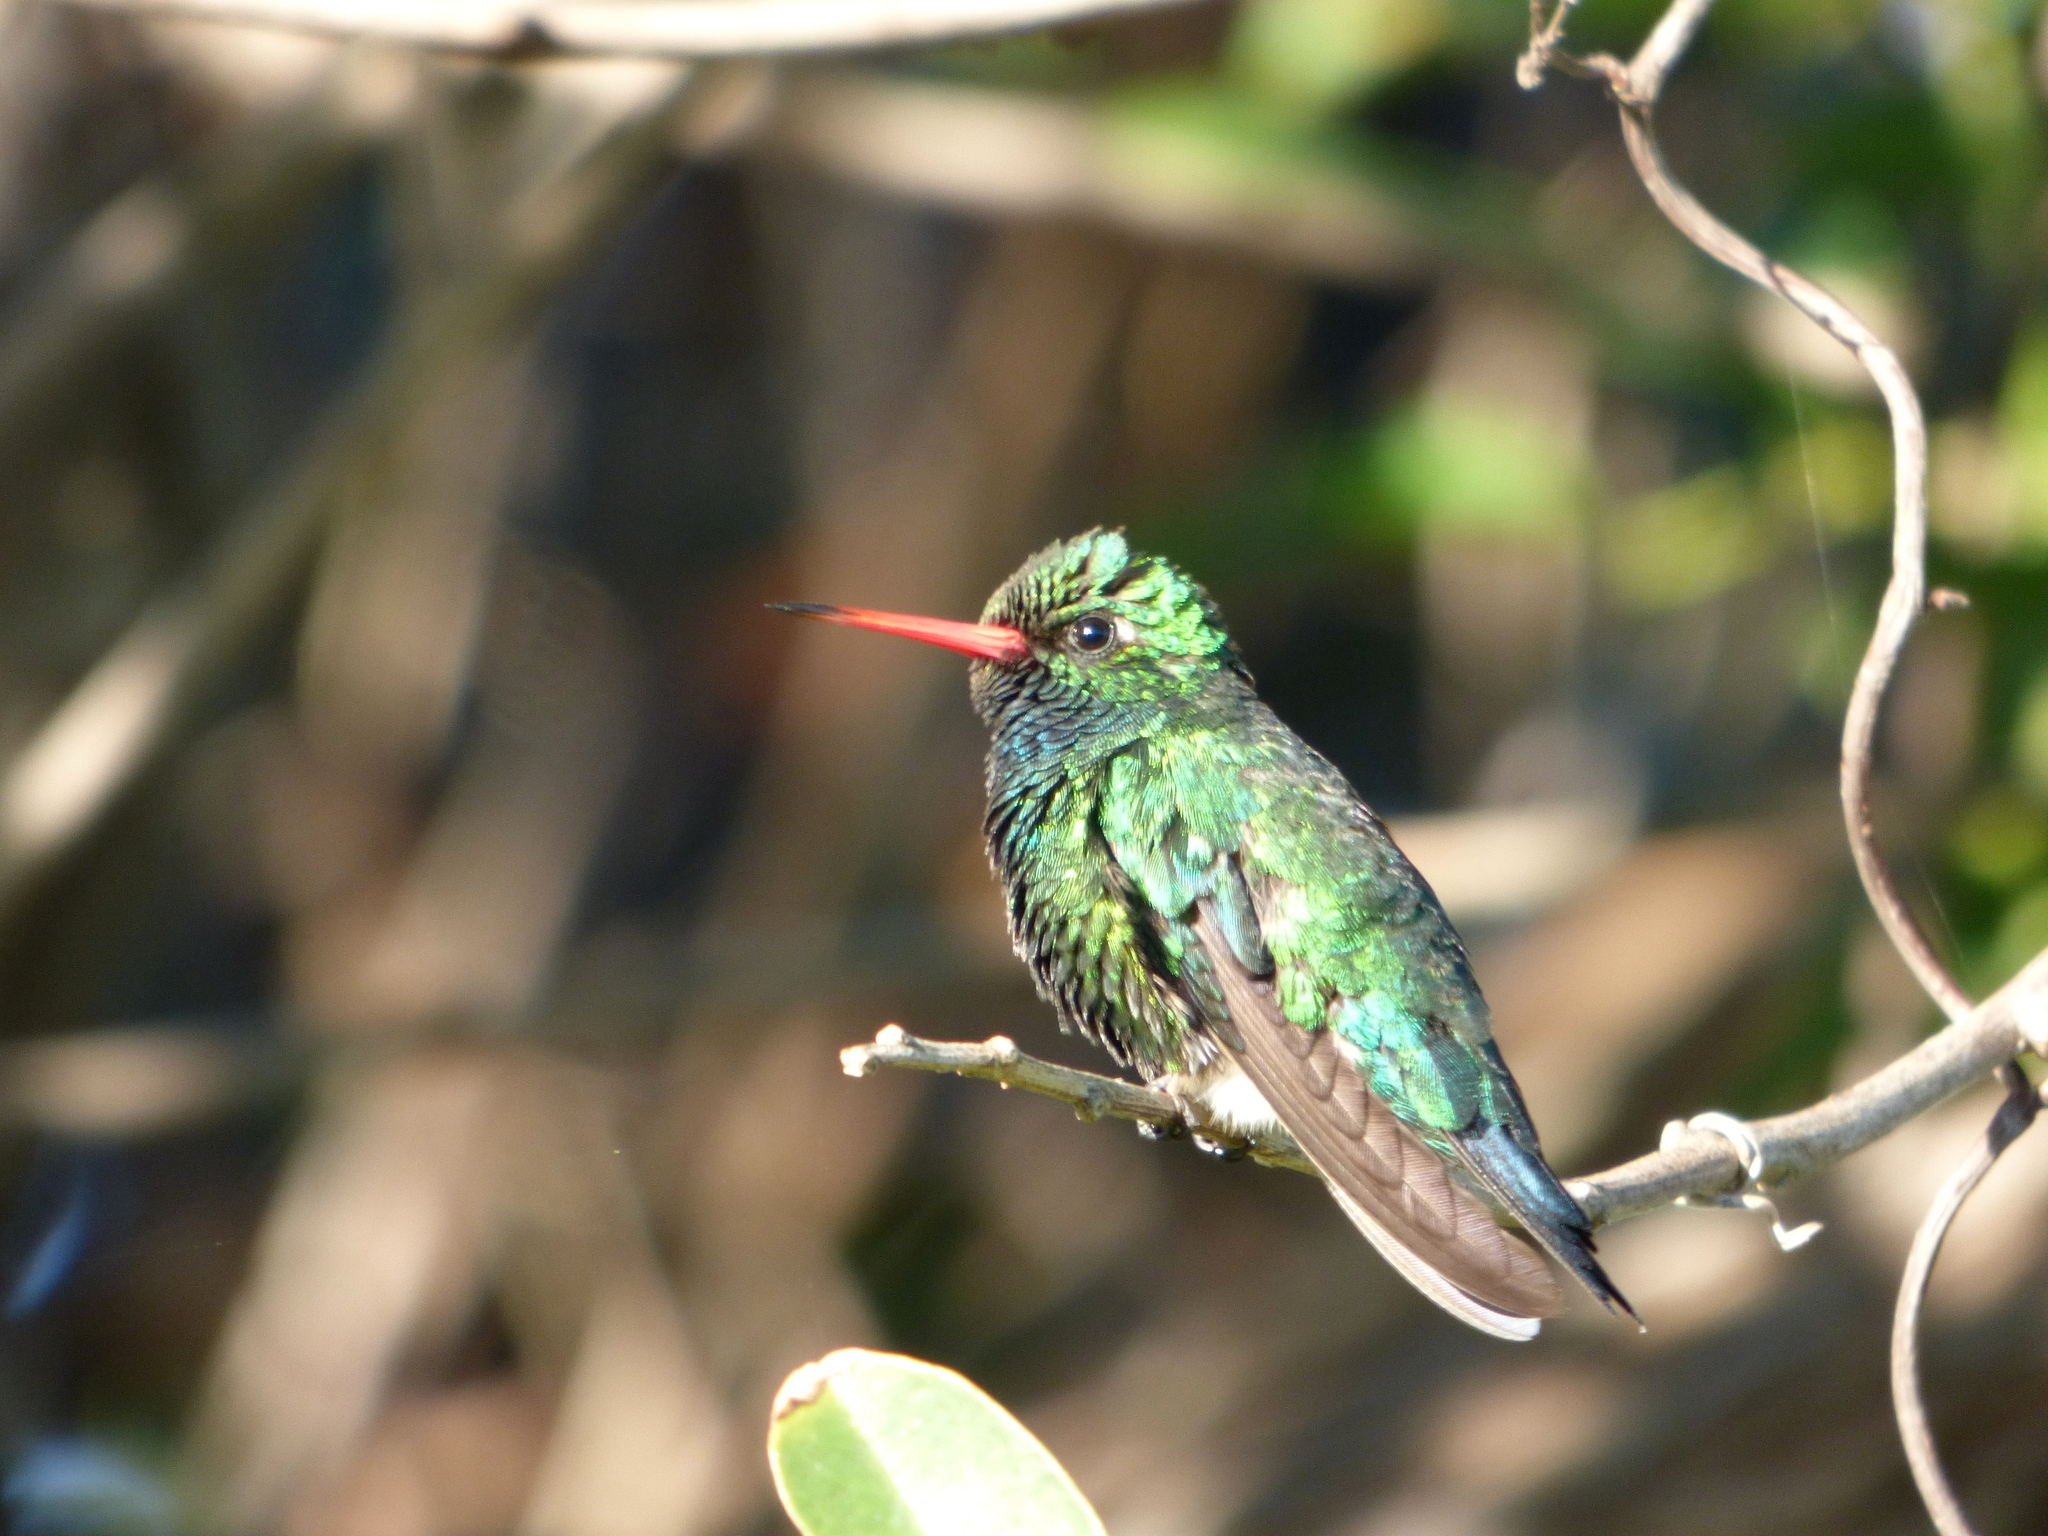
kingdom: Animalia
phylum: Chordata
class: Aves
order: Apodiformes
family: Trochilidae
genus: Chlorostilbon
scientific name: Chlorostilbon lucidus
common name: Glittering-bellied emerald
